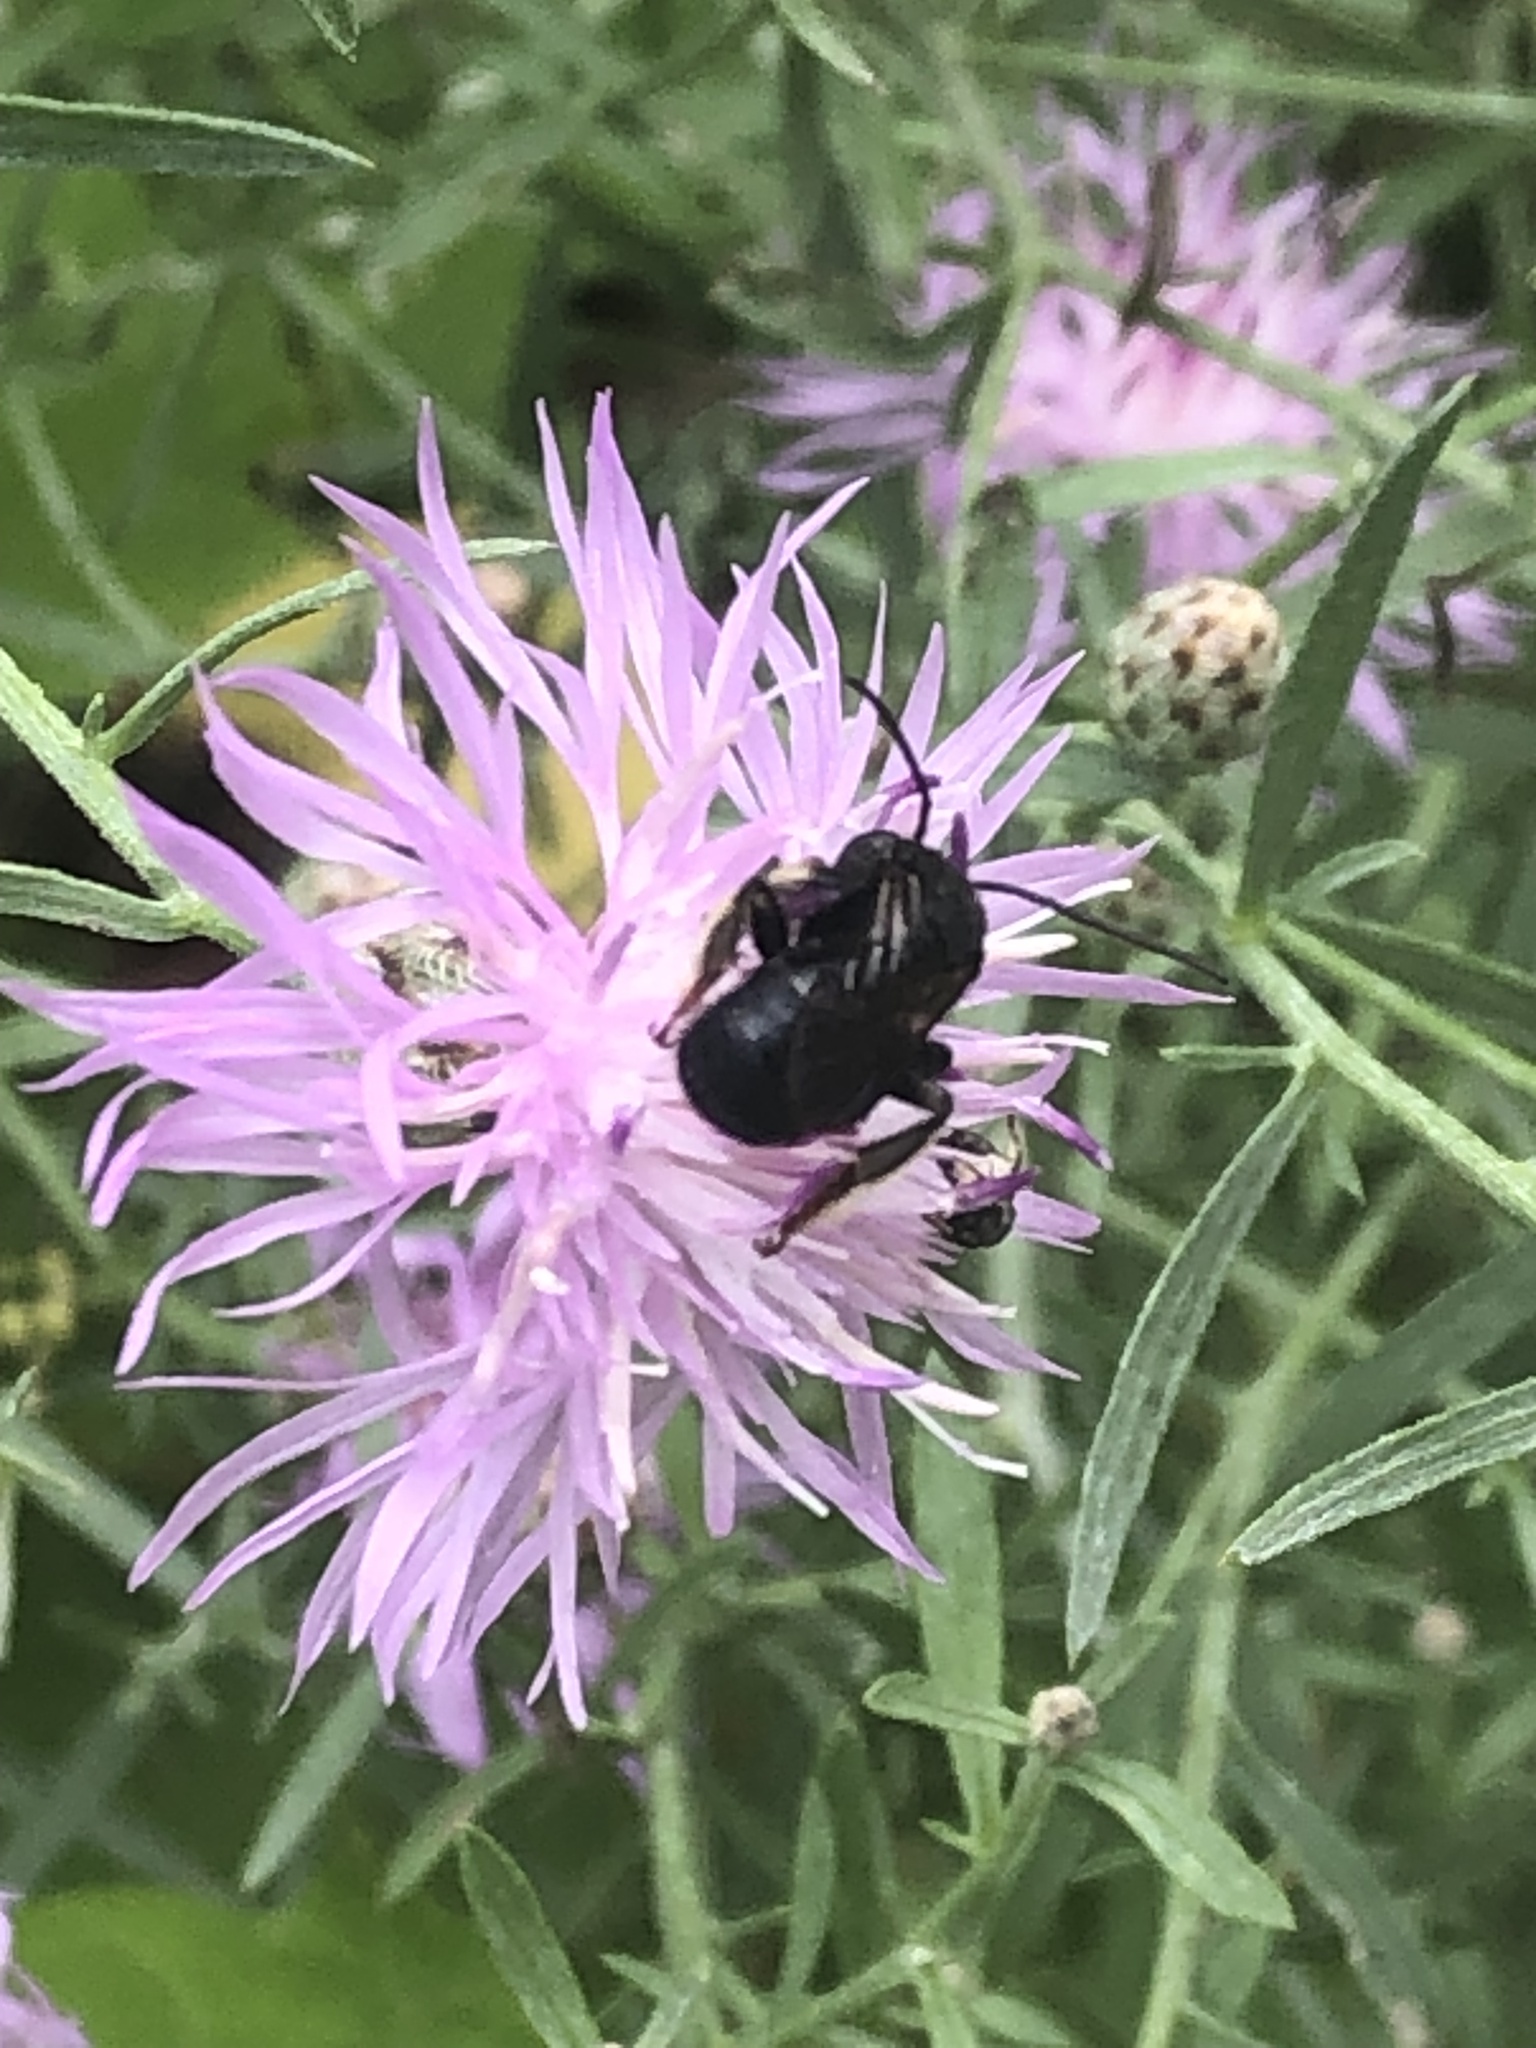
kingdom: Animalia
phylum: Arthropoda
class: Insecta
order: Hymenoptera
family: Apidae
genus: Melissodes
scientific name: Melissodes bimaculatus
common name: Two-spotted long-horned bee
